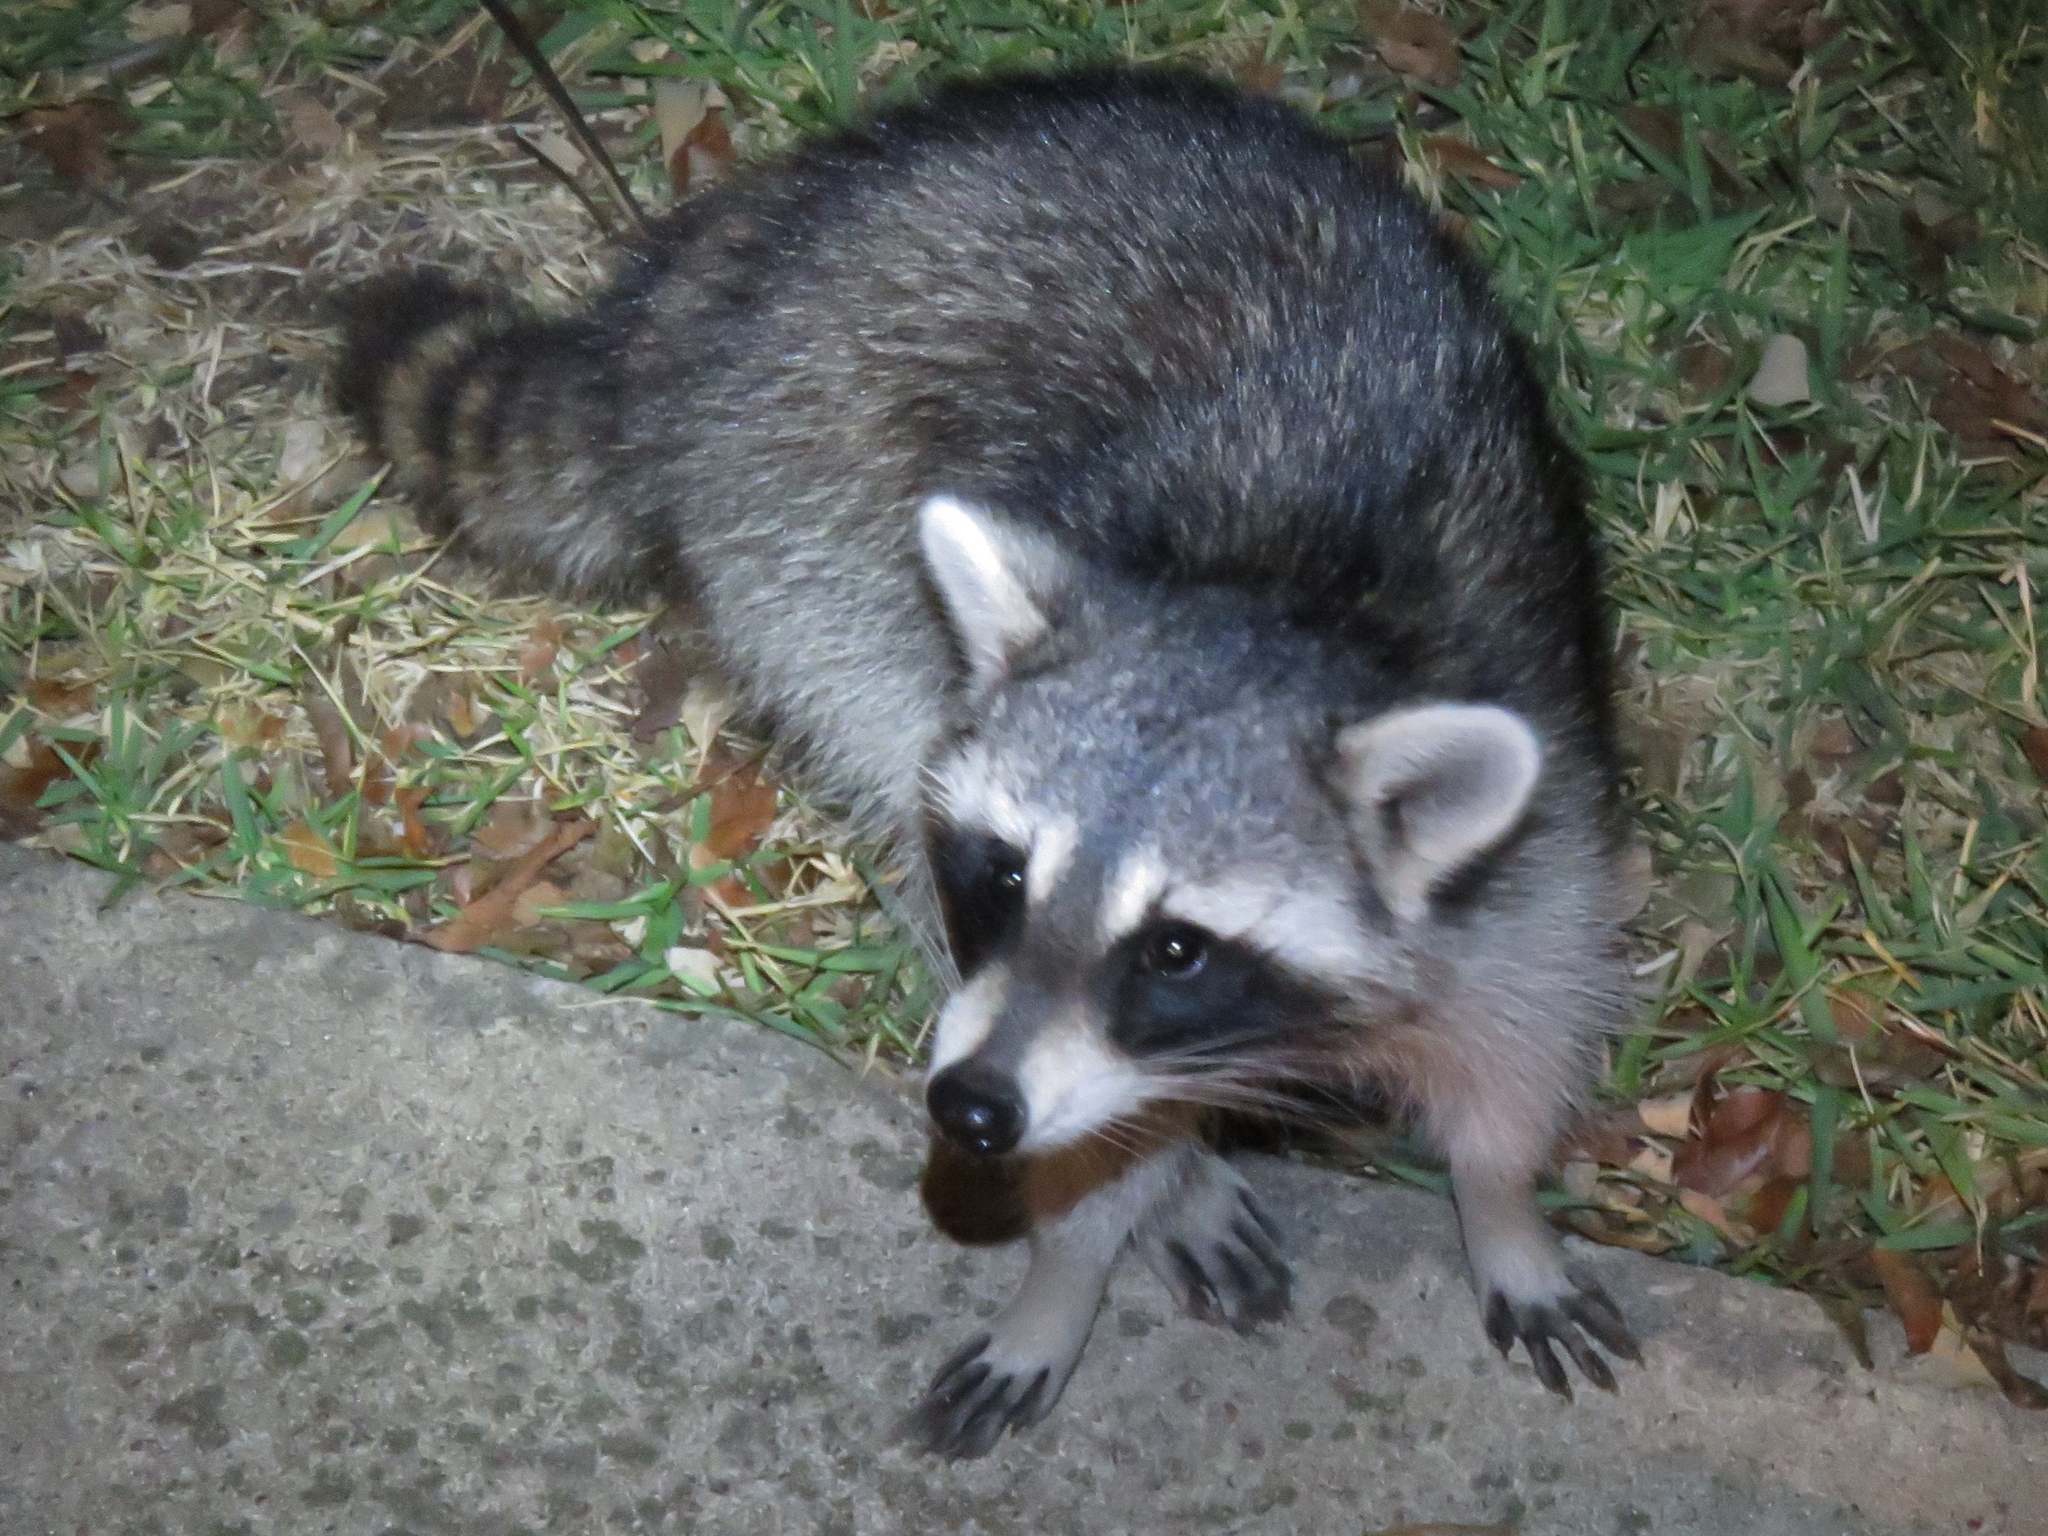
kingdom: Animalia
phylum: Chordata
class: Mammalia
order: Carnivora
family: Procyonidae
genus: Procyon
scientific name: Procyon lotor
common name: Raccoon
